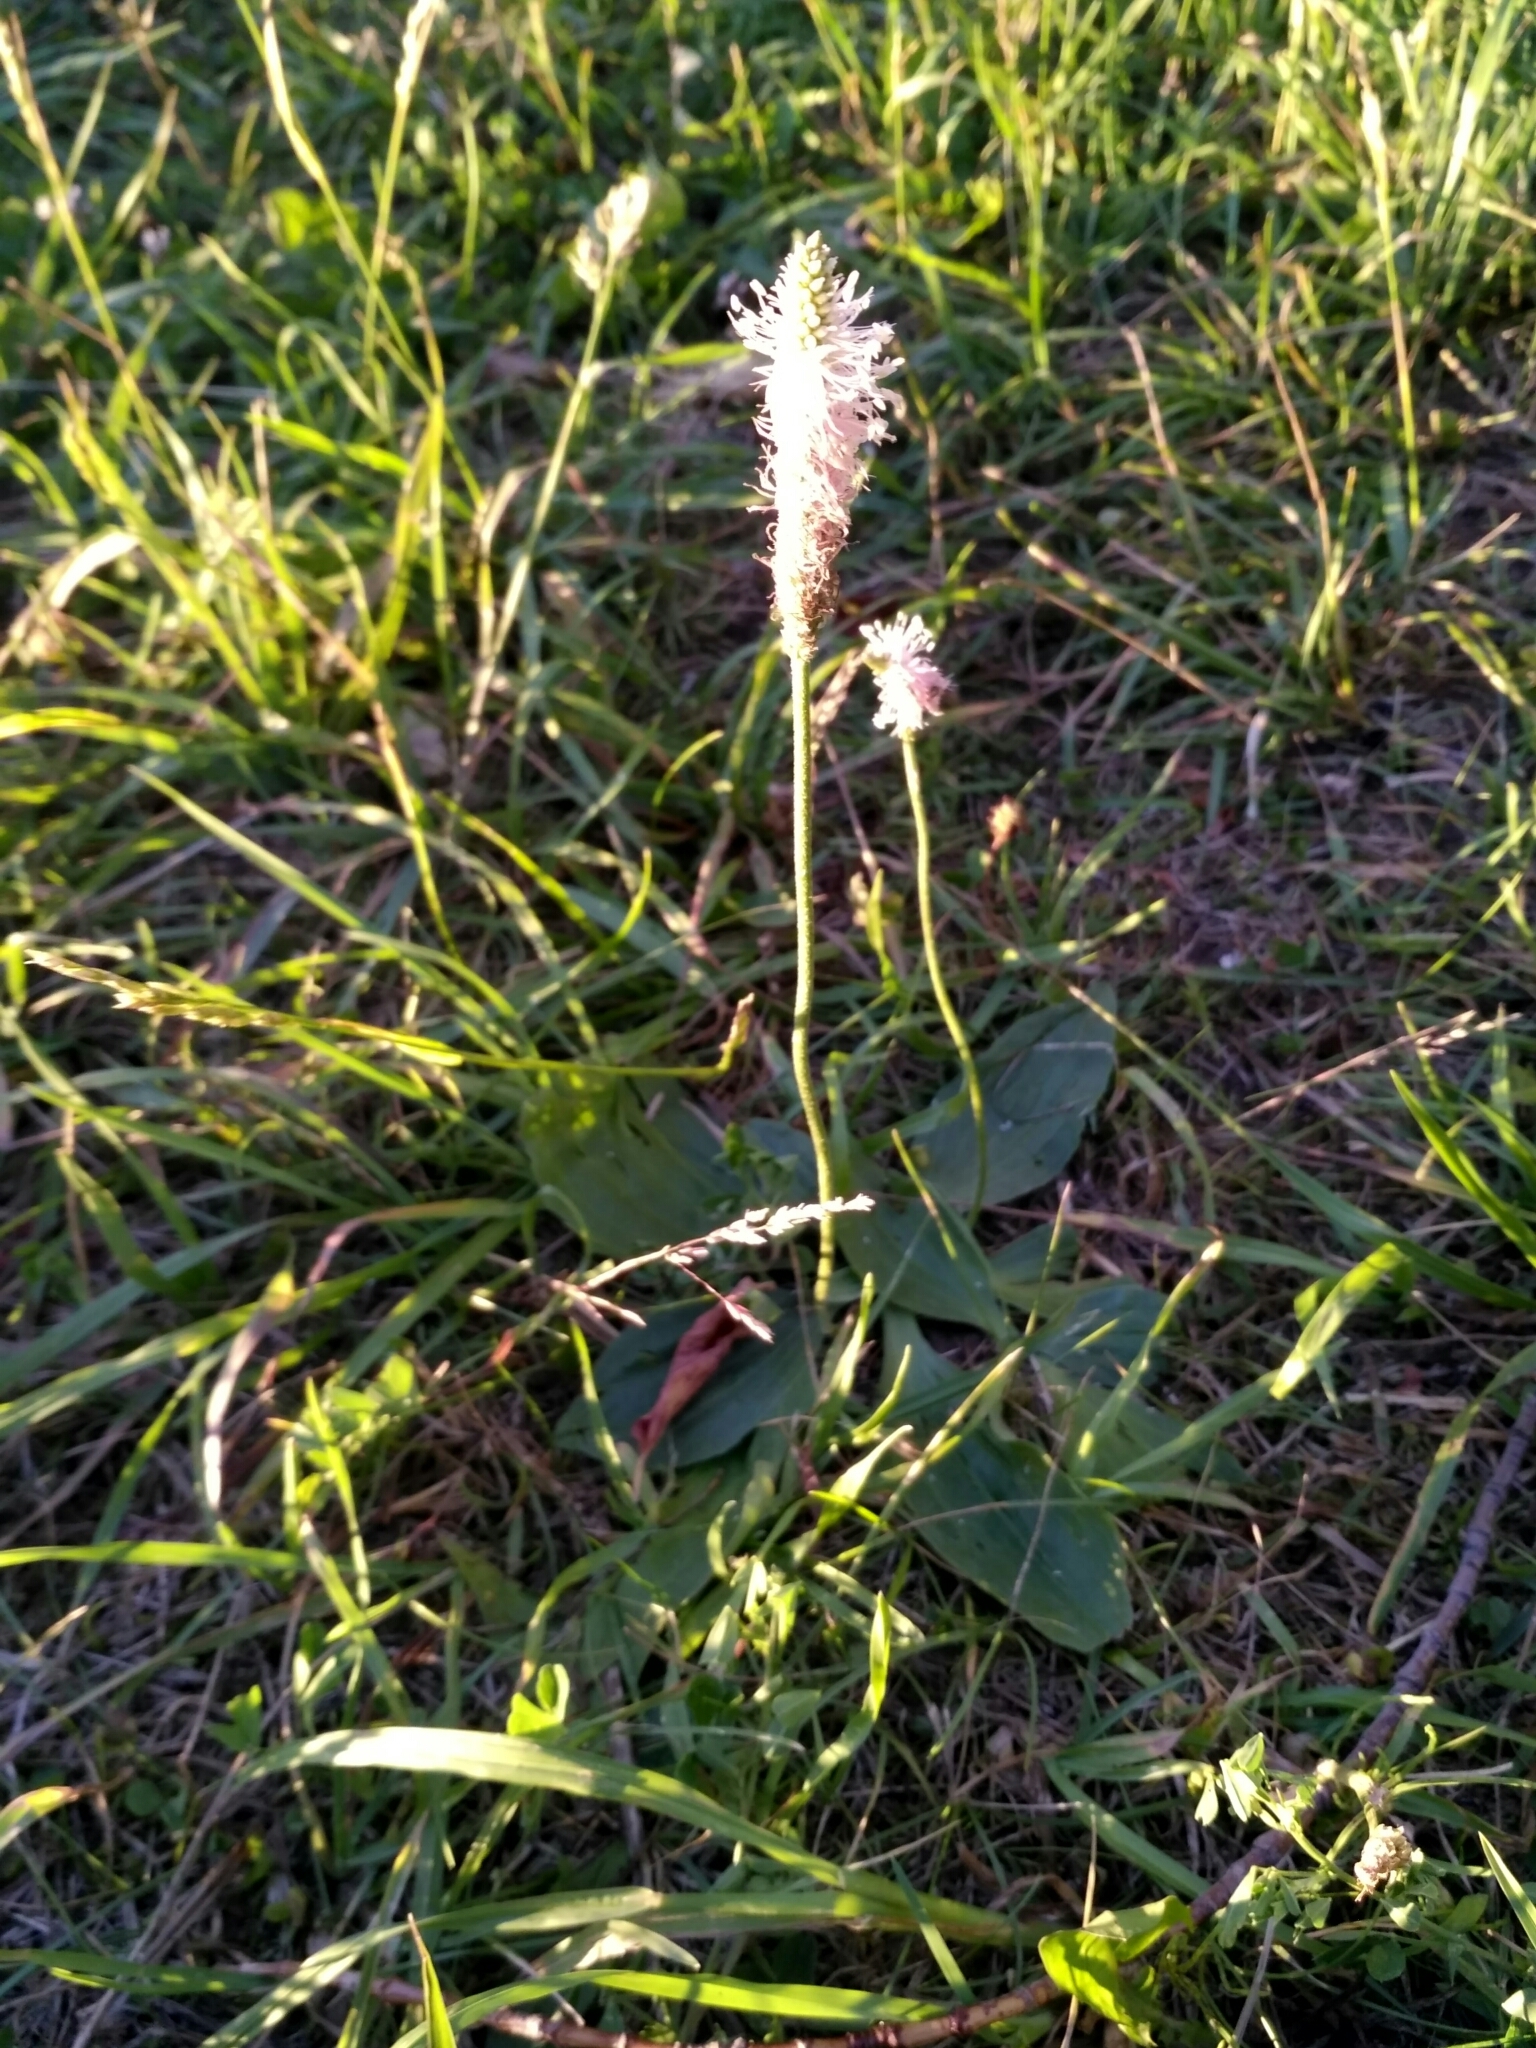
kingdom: Plantae
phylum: Tracheophyta
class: Magnoliopsida
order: Lamiales
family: Plantaginaceae
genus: Plantago
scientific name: Plantago media
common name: Hoary plantain
